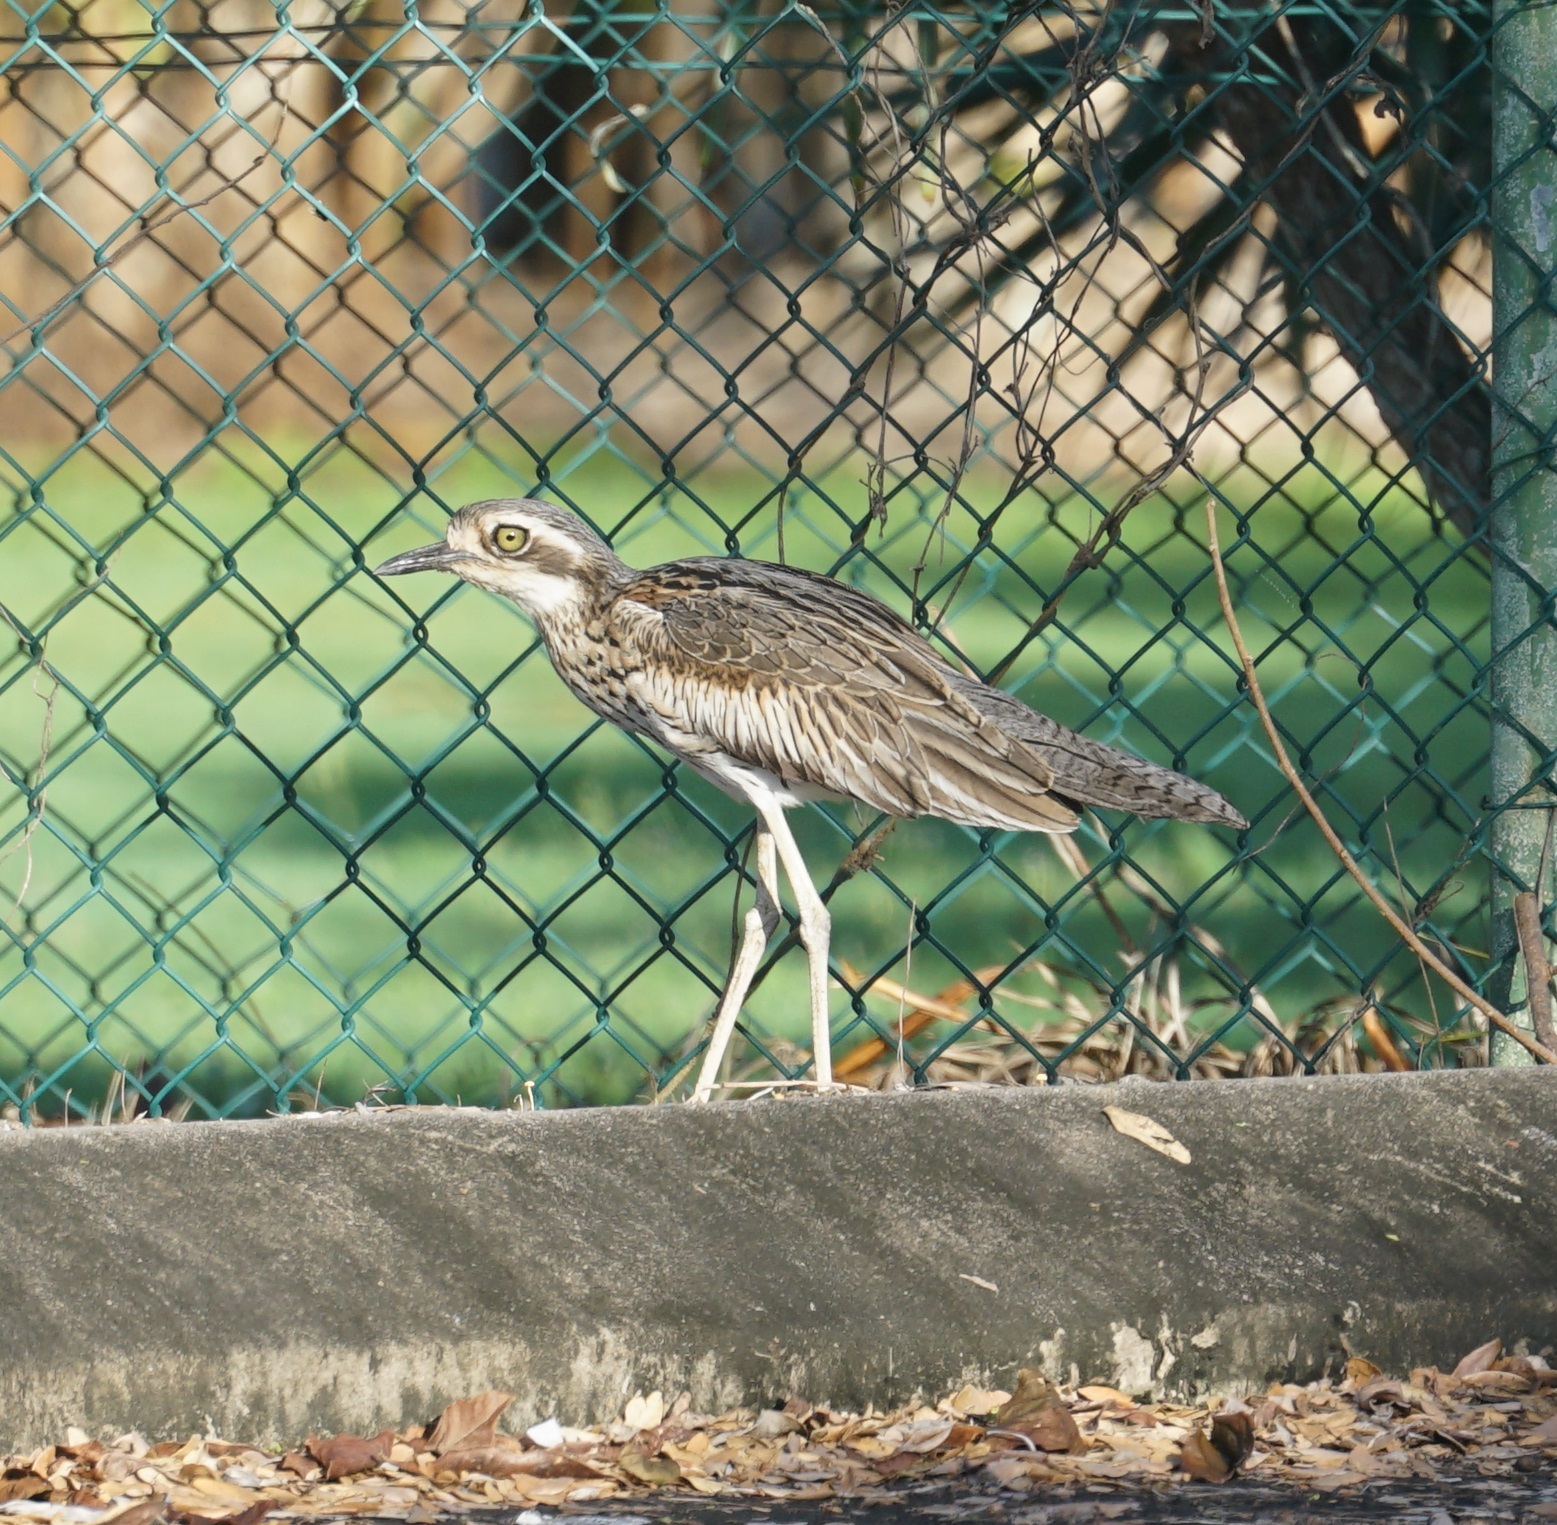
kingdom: Animalia
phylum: Chordata
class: Aves
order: Charadriiformes
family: Burhinidae
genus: Burhinus
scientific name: Burhinus grallarius
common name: Bush stone-curlew
